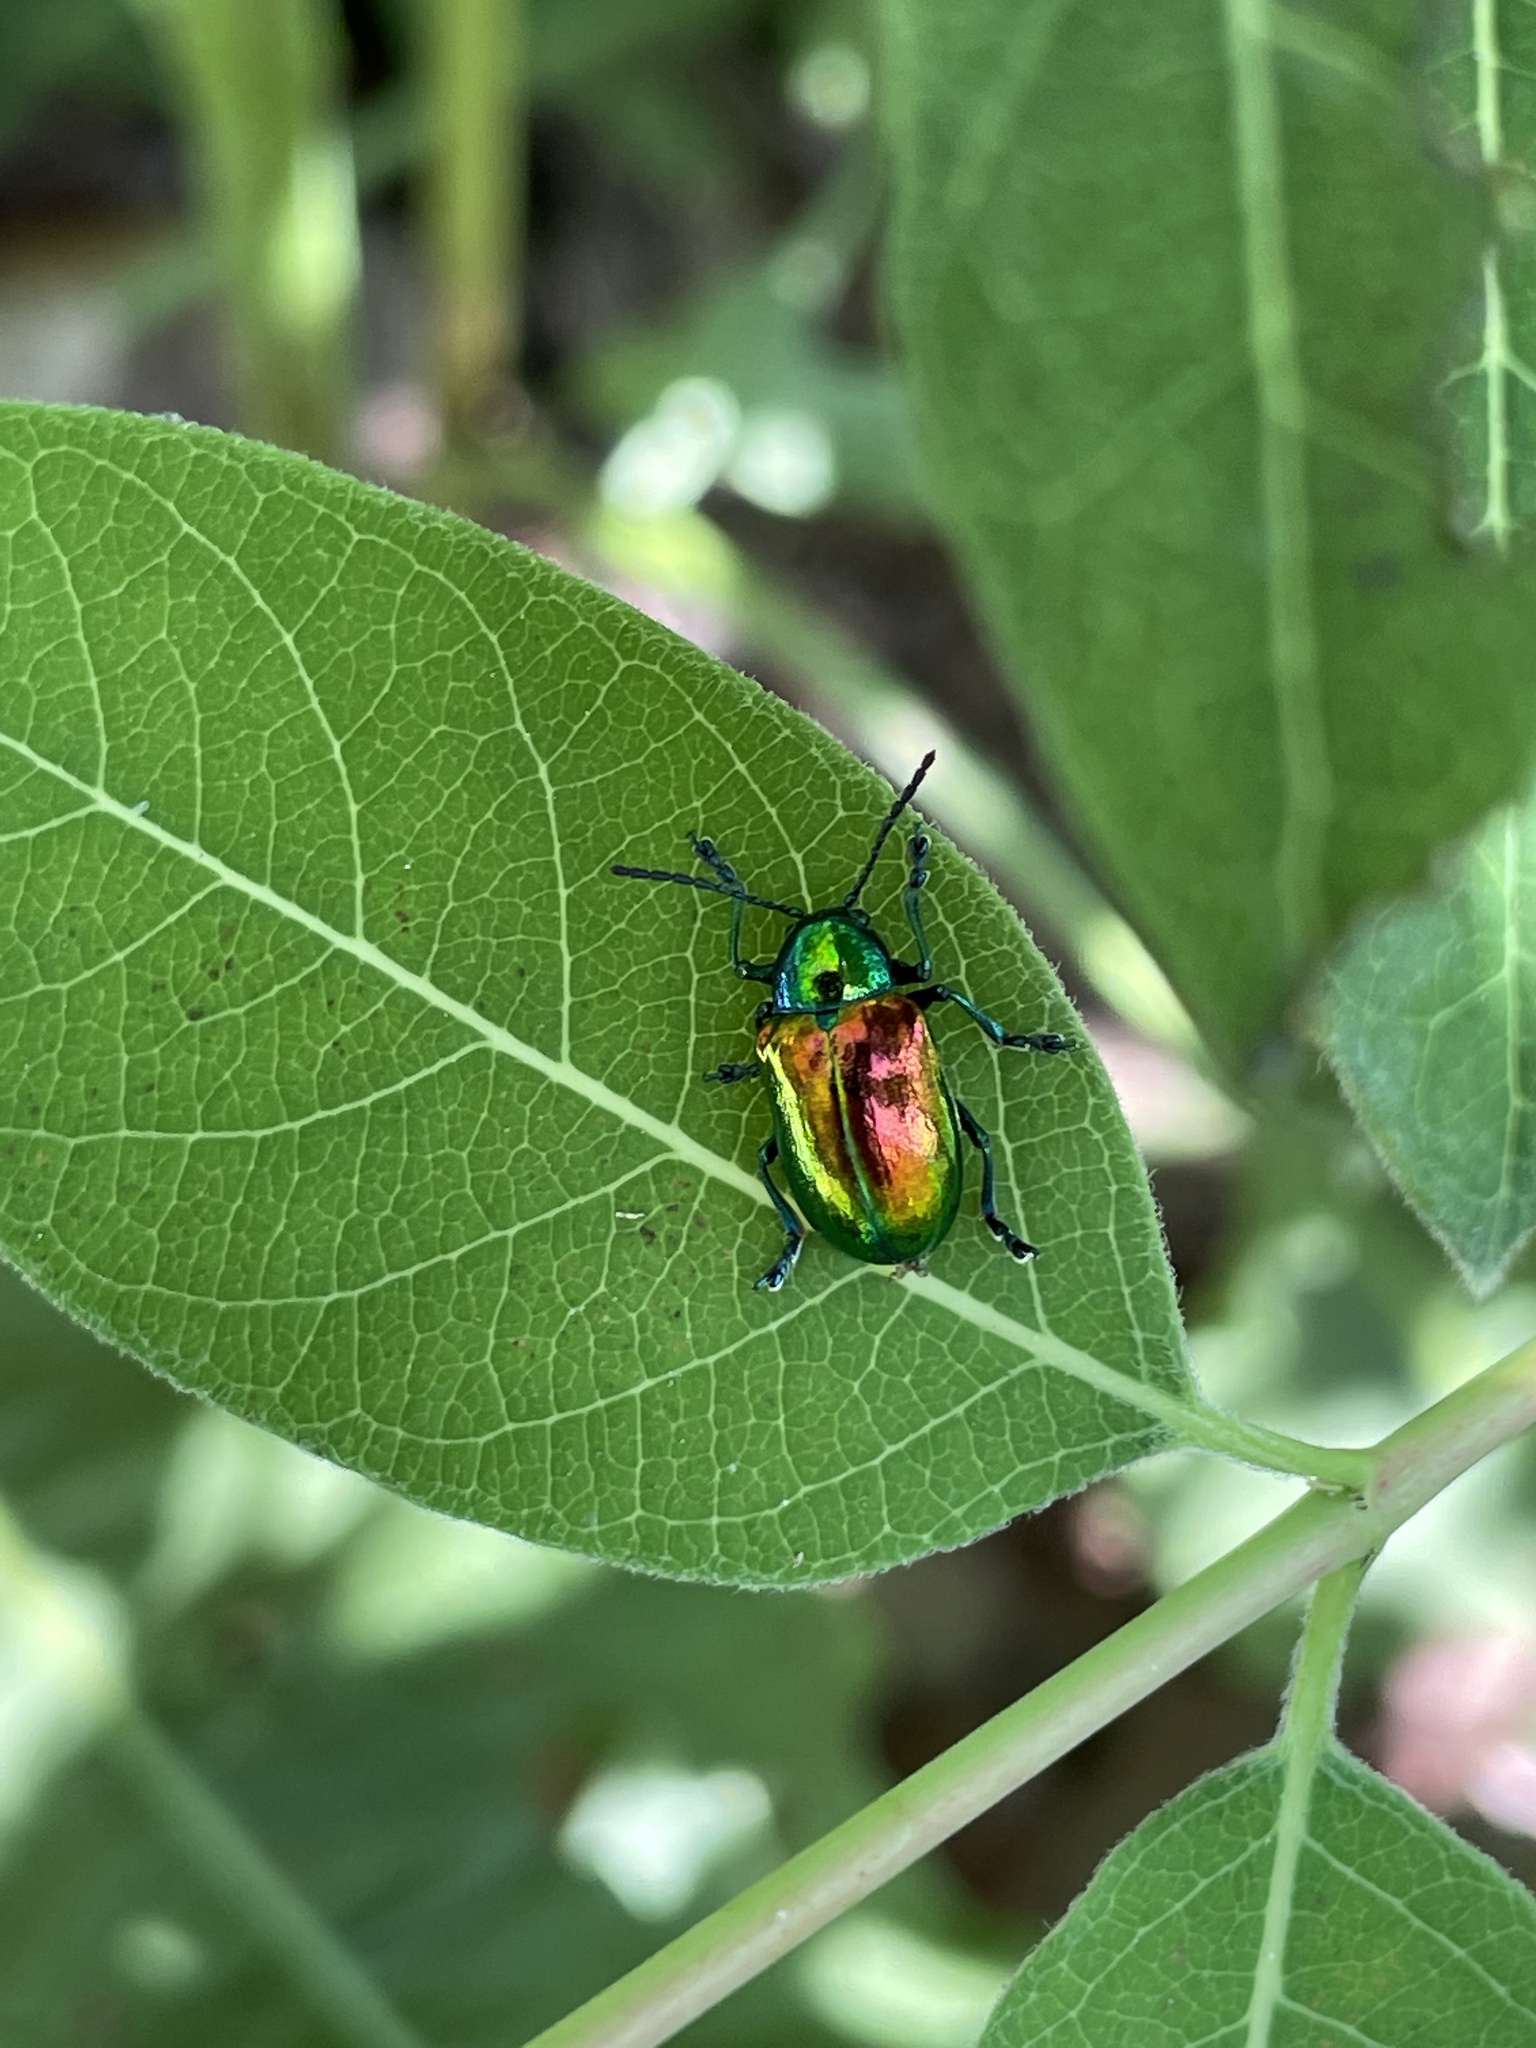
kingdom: Animalia
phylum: Arthropoda
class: Insecta
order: Coleoptera
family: Chrysomelidae
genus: Chrysochus
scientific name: Chrysochus auratus
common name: Dogbane leaf beetle
